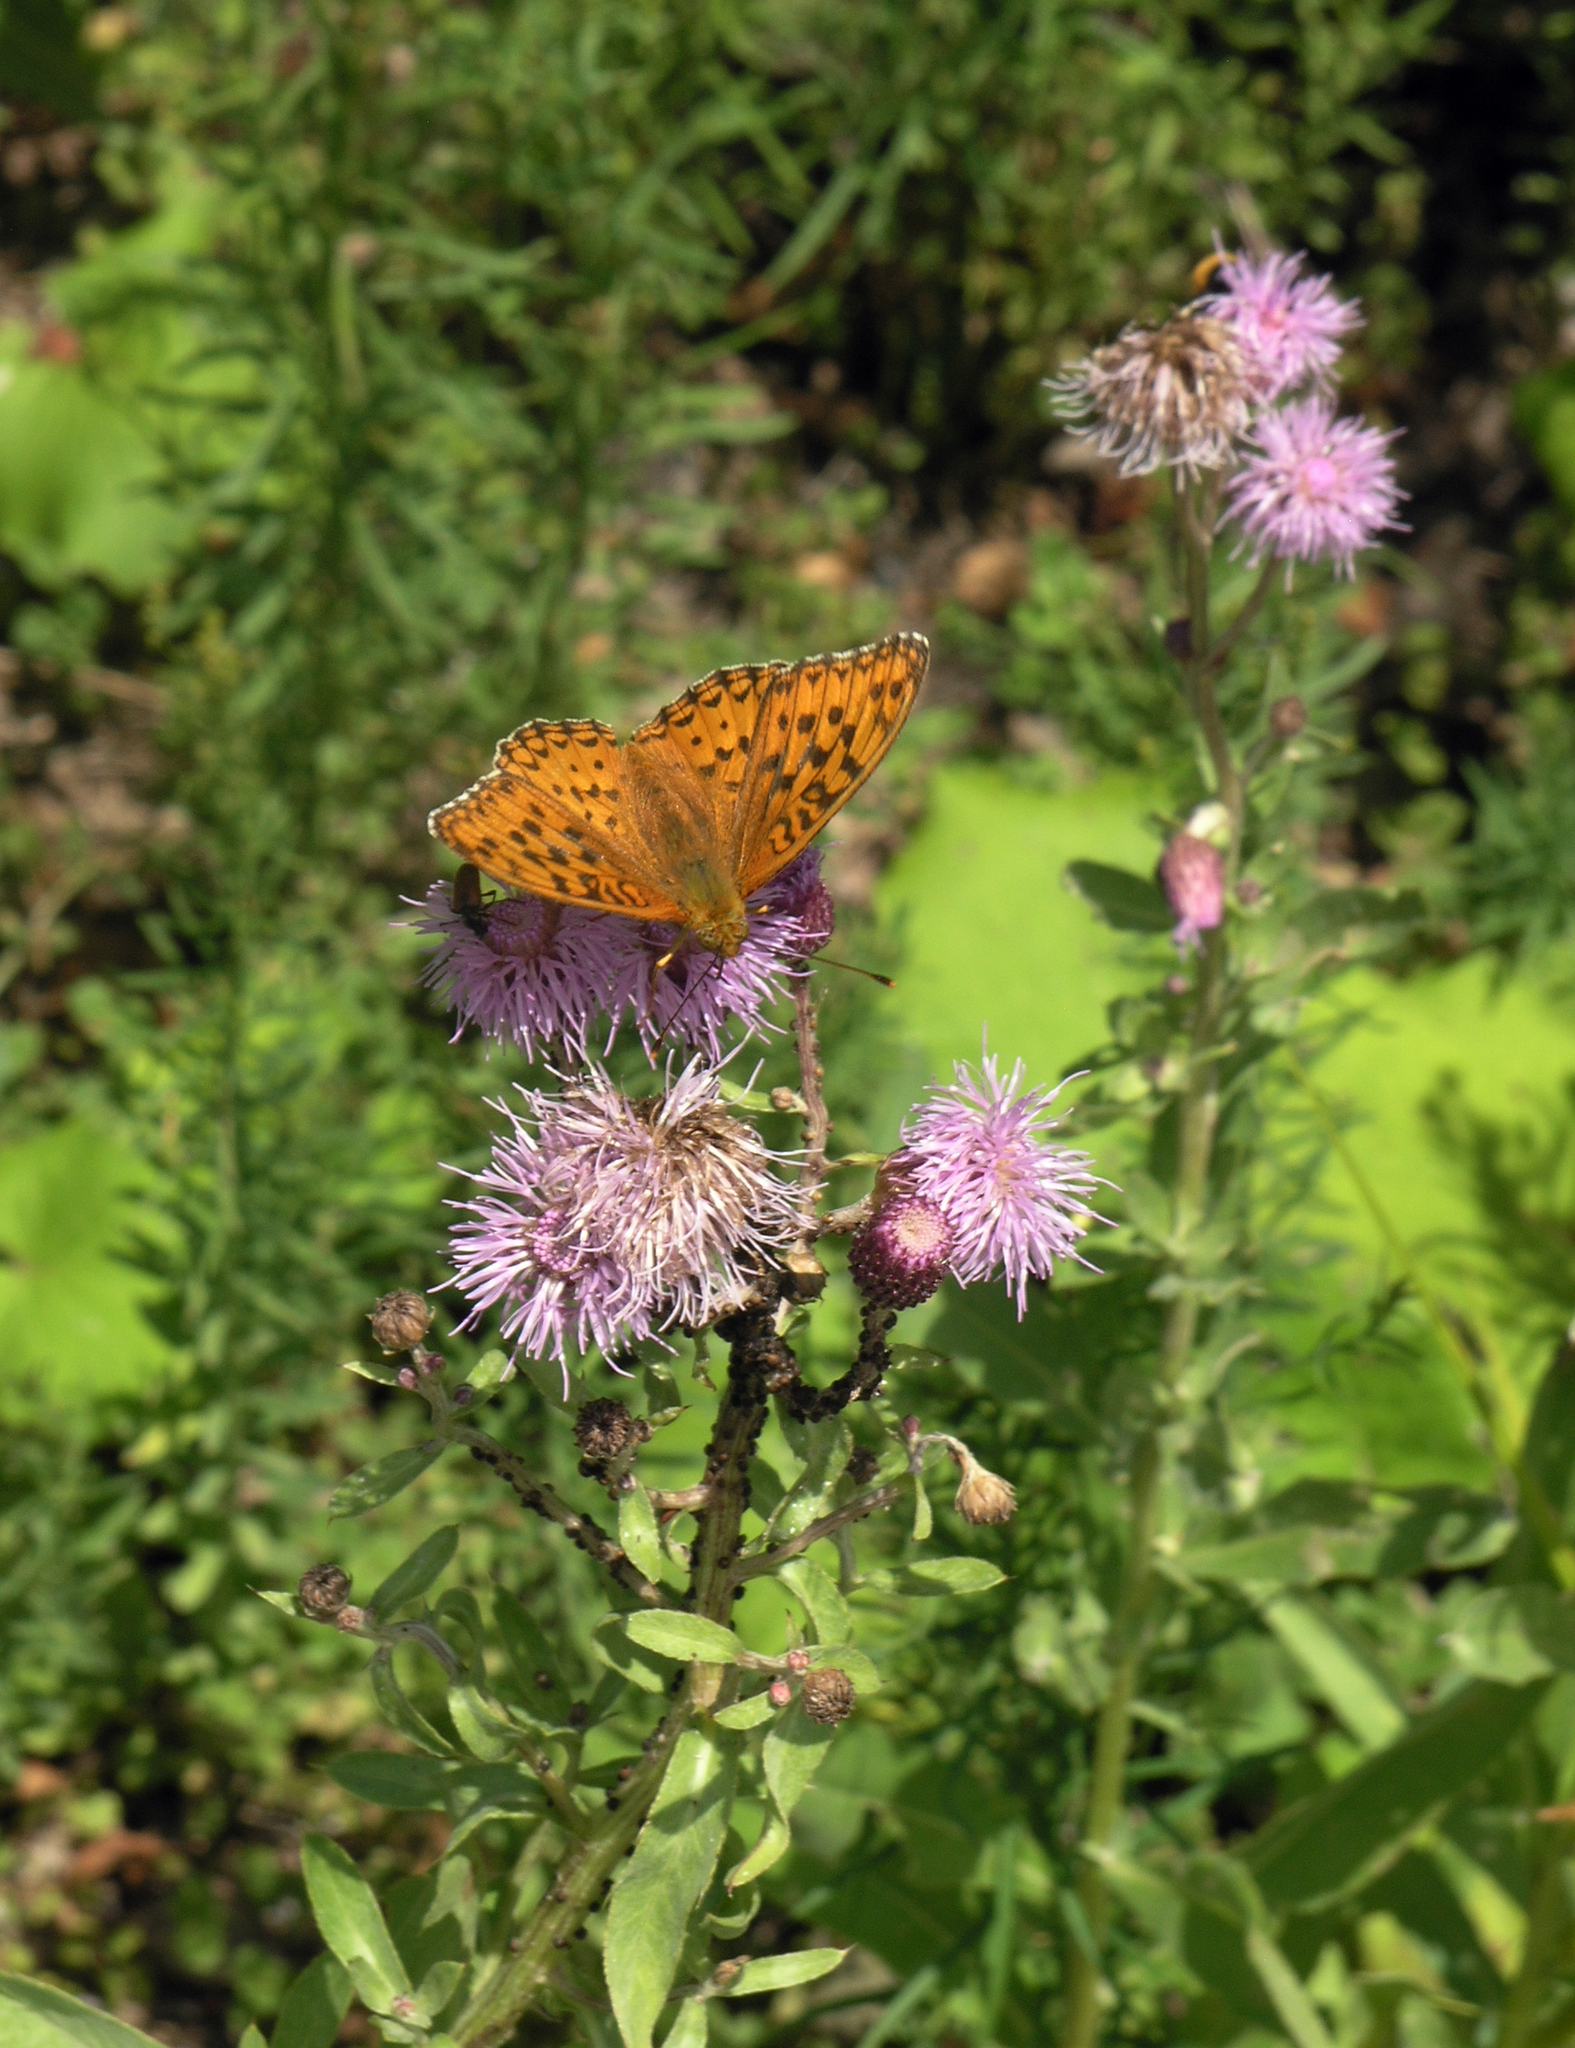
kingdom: Animalia
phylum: Arthropoda
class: Insecta
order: Lepidoptera
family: Nymphalidae
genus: Fabriciana
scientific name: Fabriciana adippe
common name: High brown fritillary
